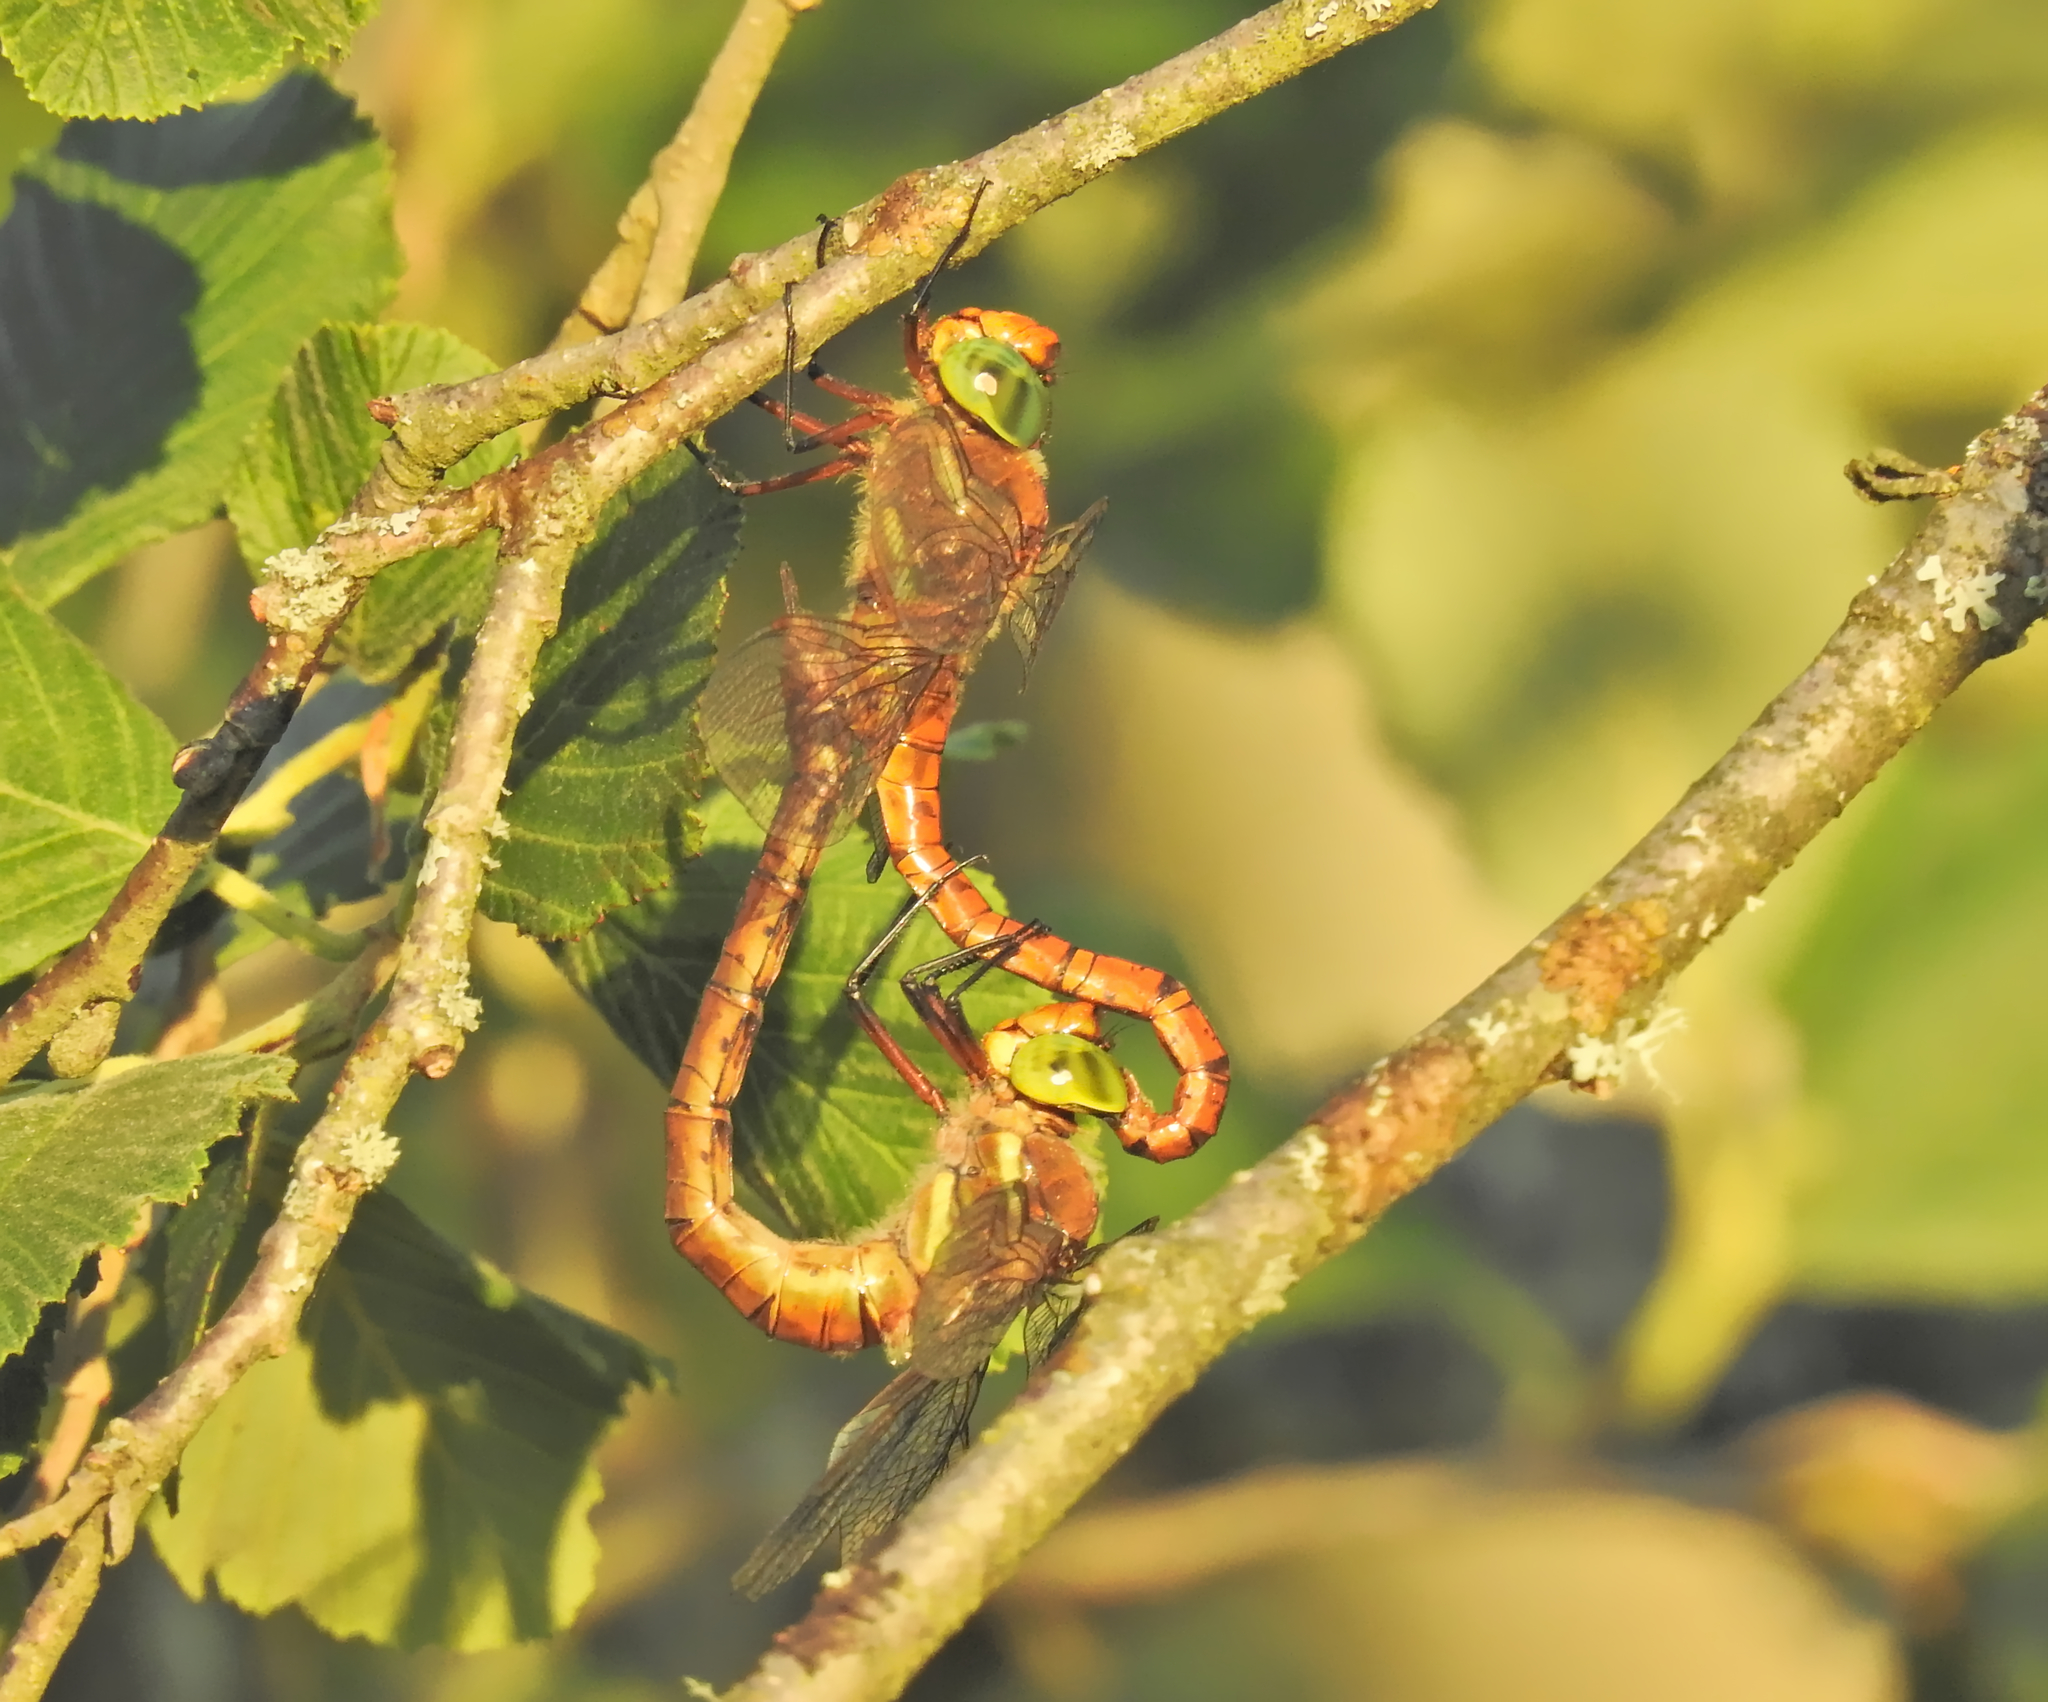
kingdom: Animalia
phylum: Arthropoda
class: Insecta
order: Odonata
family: Aeshnidae
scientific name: Aeshnidae
